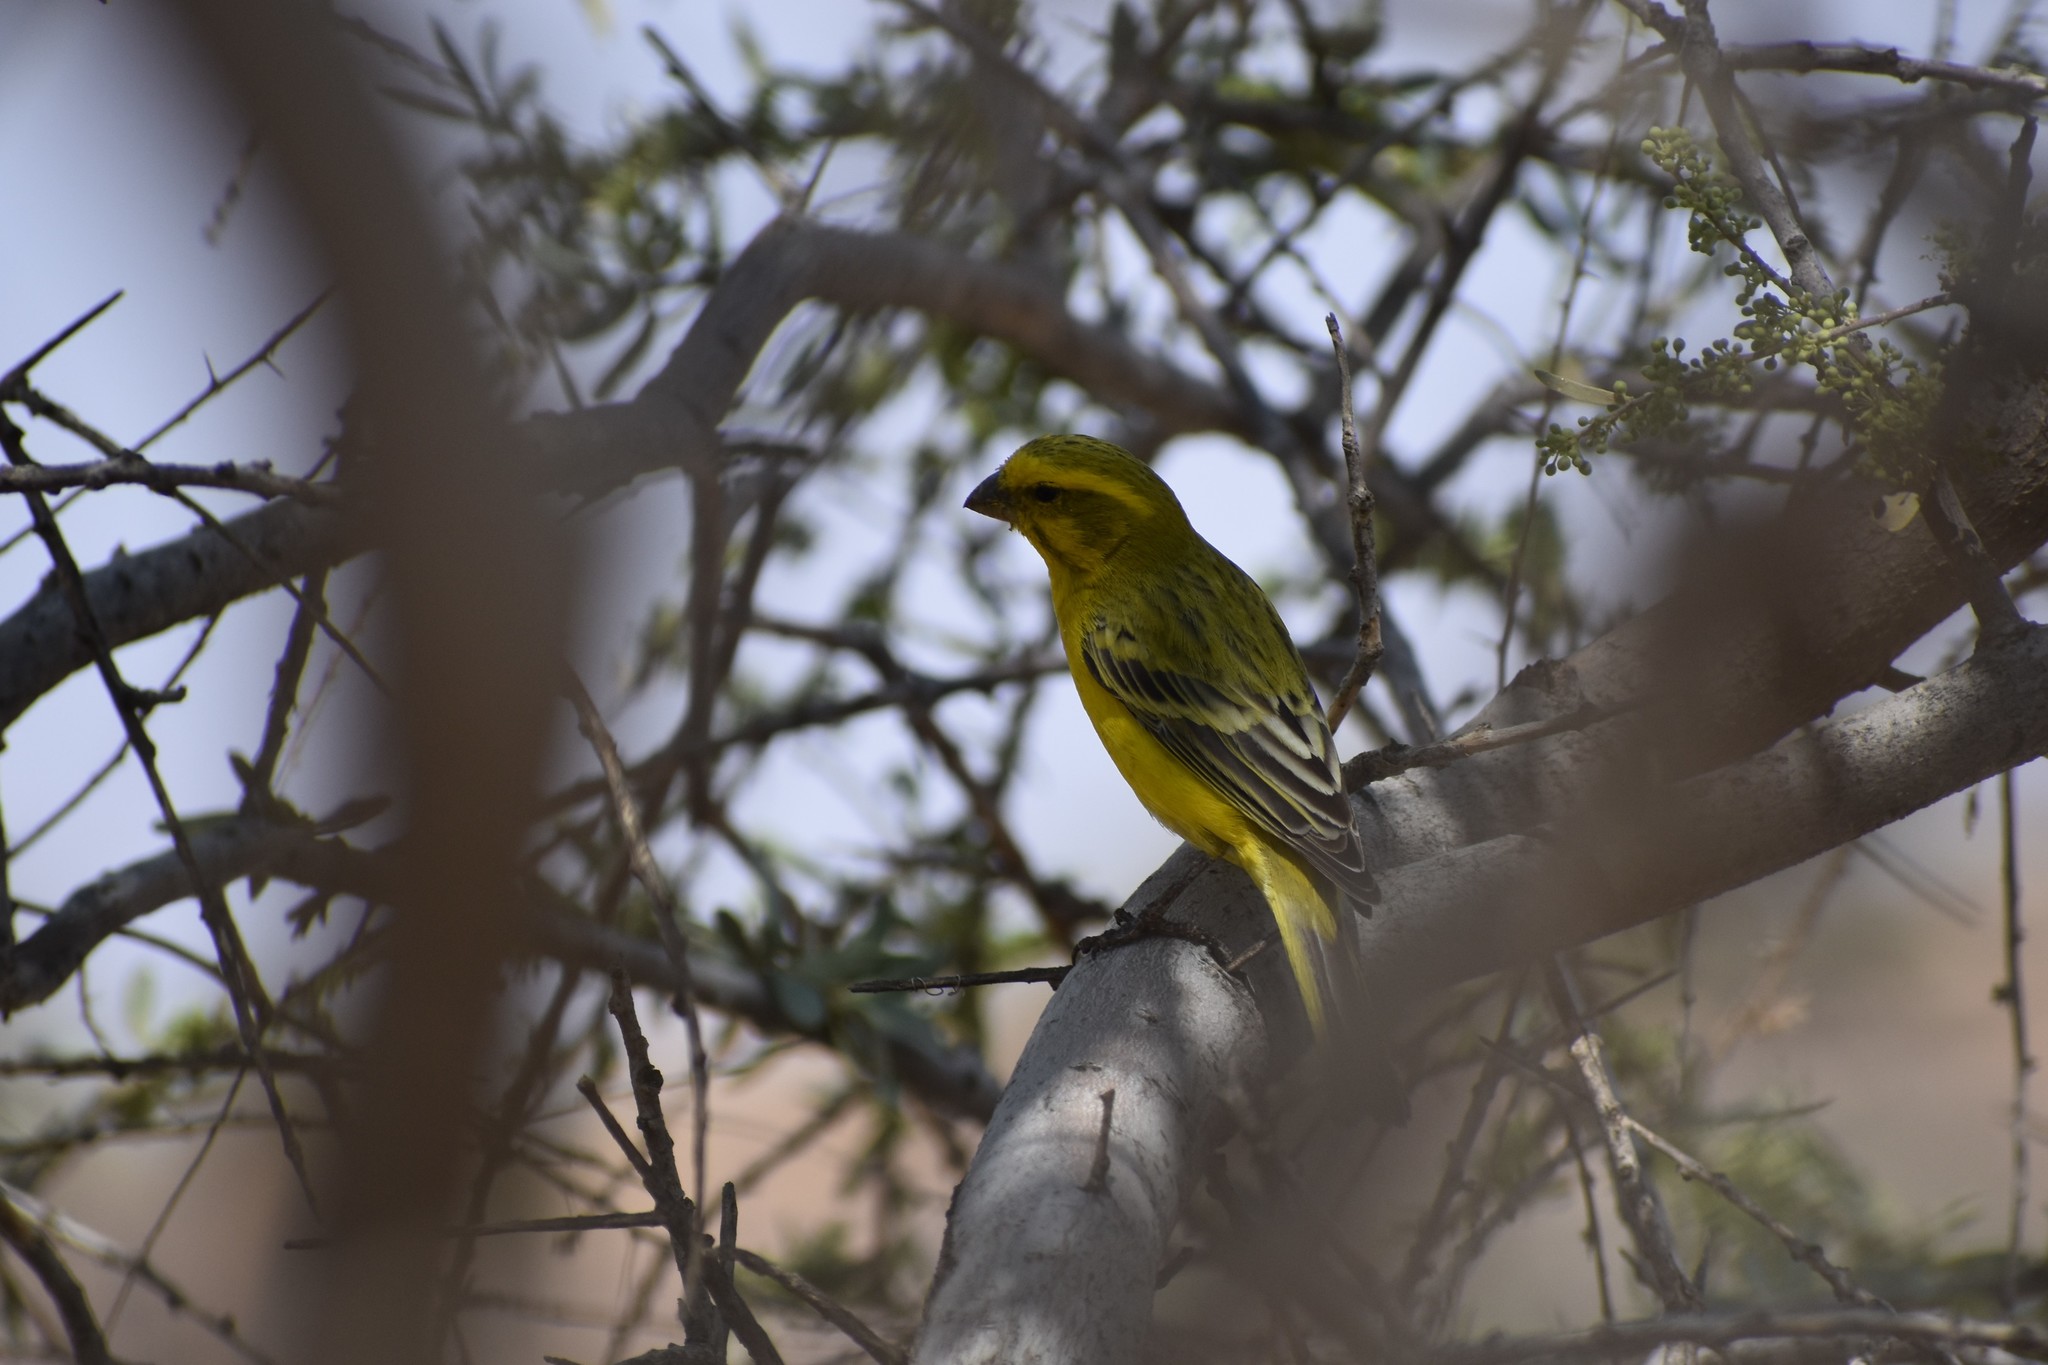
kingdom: Animalia
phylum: Chordata
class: Aves
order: Passeriformes
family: Fringillidae
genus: Crithagra
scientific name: Crithagra flaviventris
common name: Yellow canary
